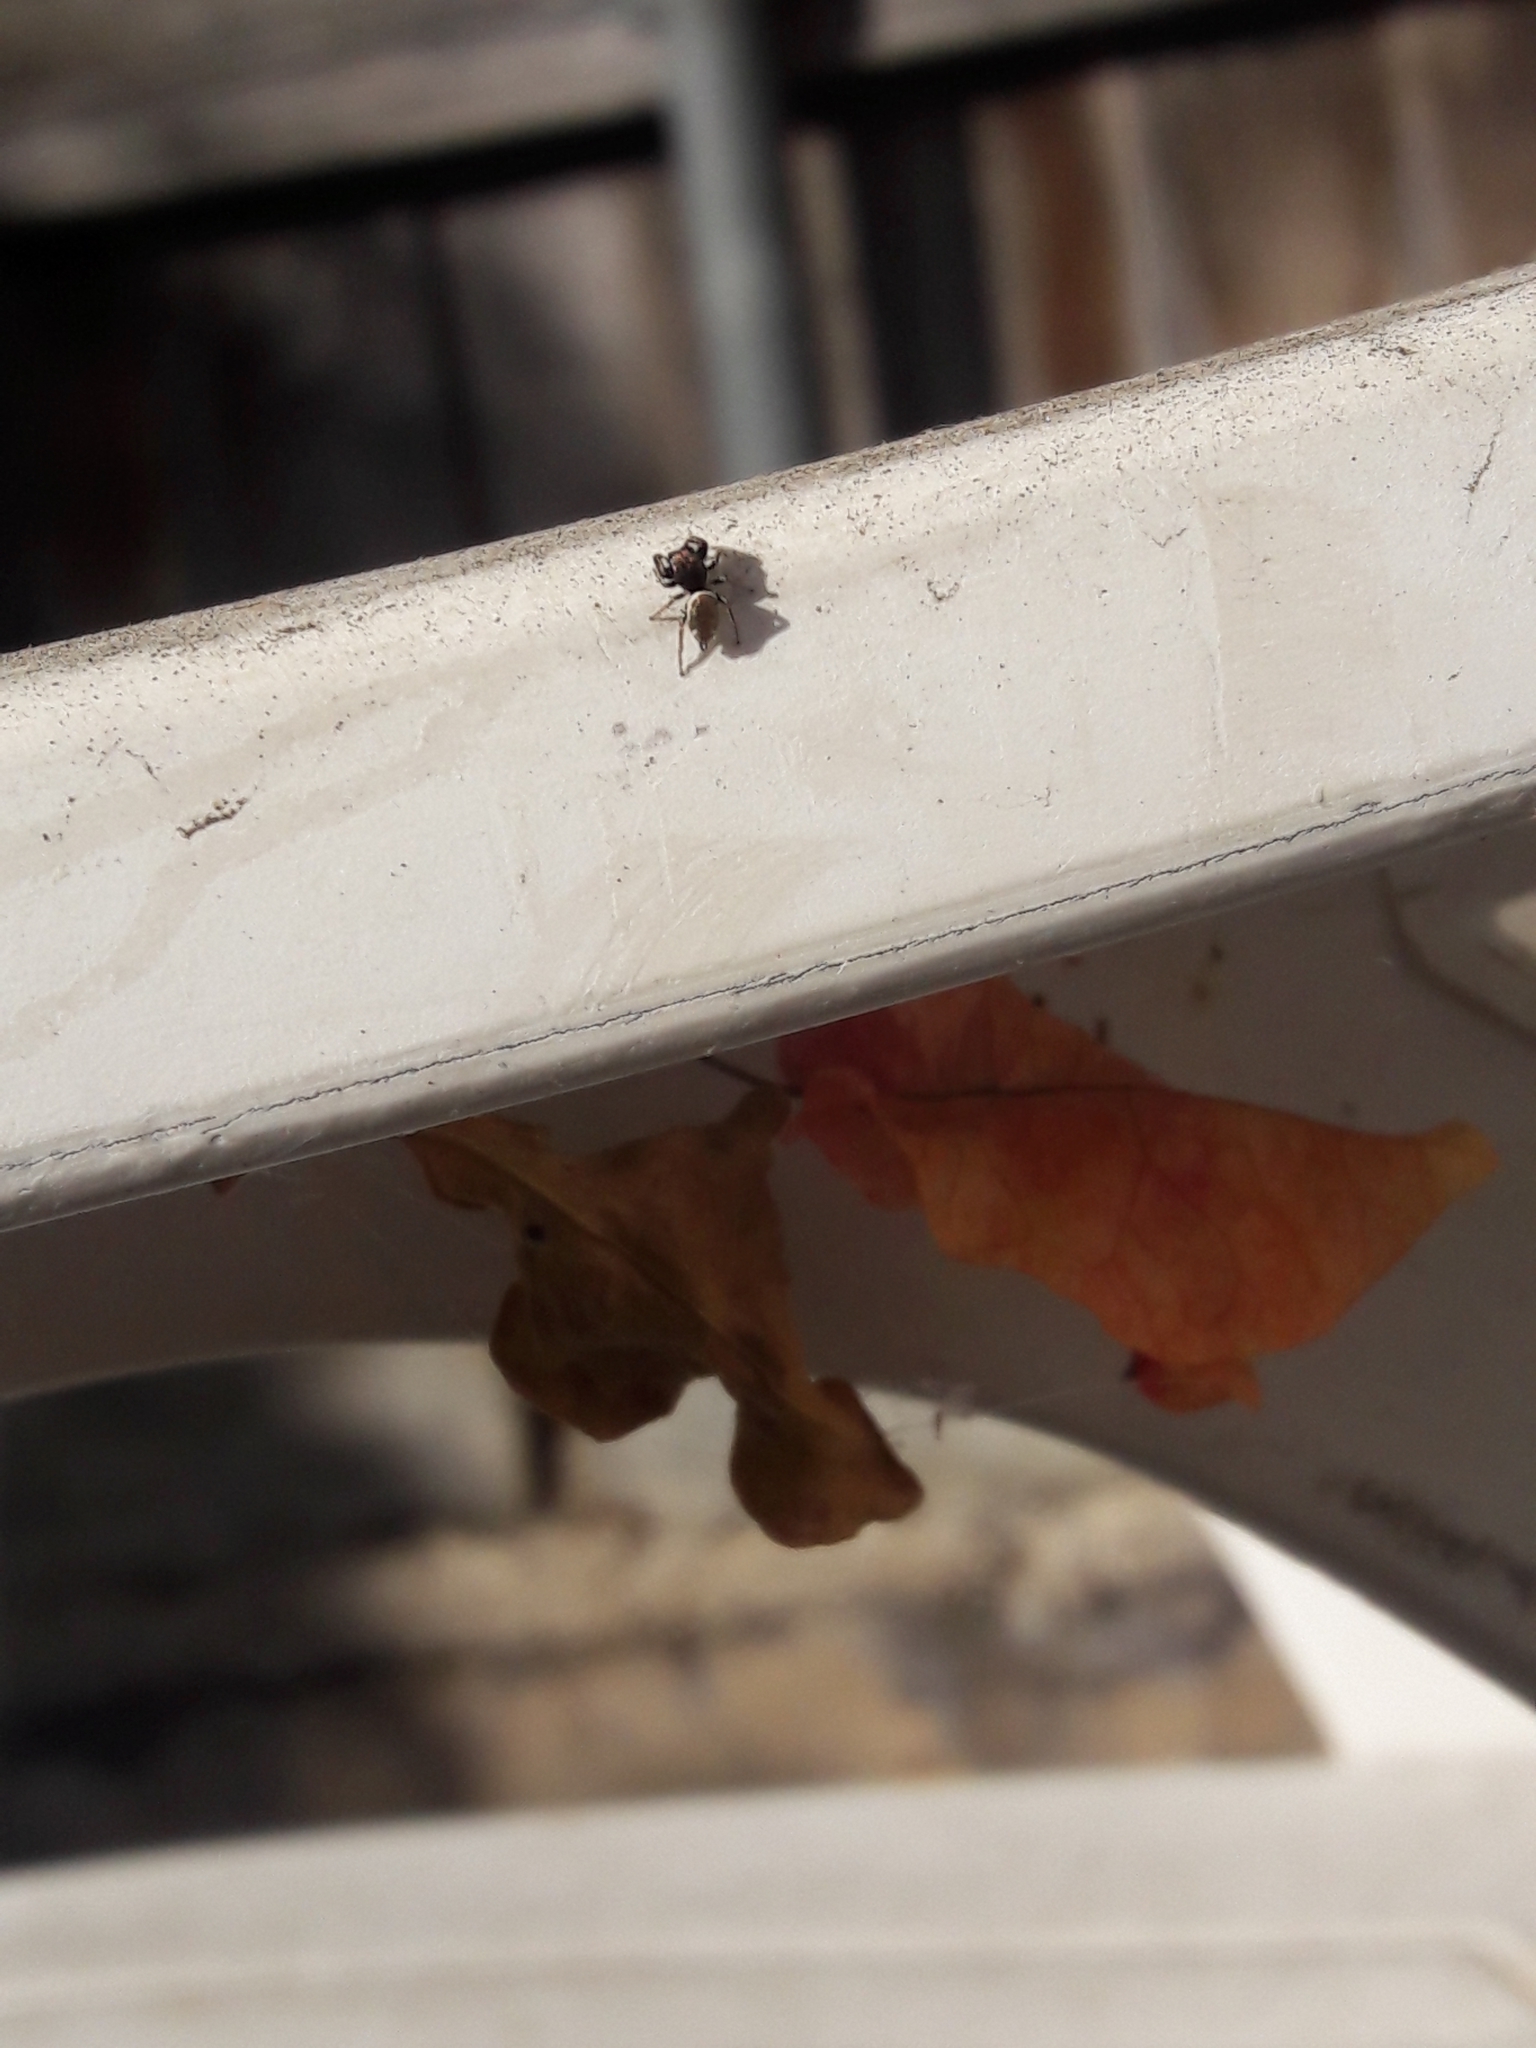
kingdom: Animalia
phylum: Arthropoda
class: Arachnida
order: Araneae
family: Salticidae
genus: Sassacus
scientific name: Sassacus vitis
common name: Jumping spiders
